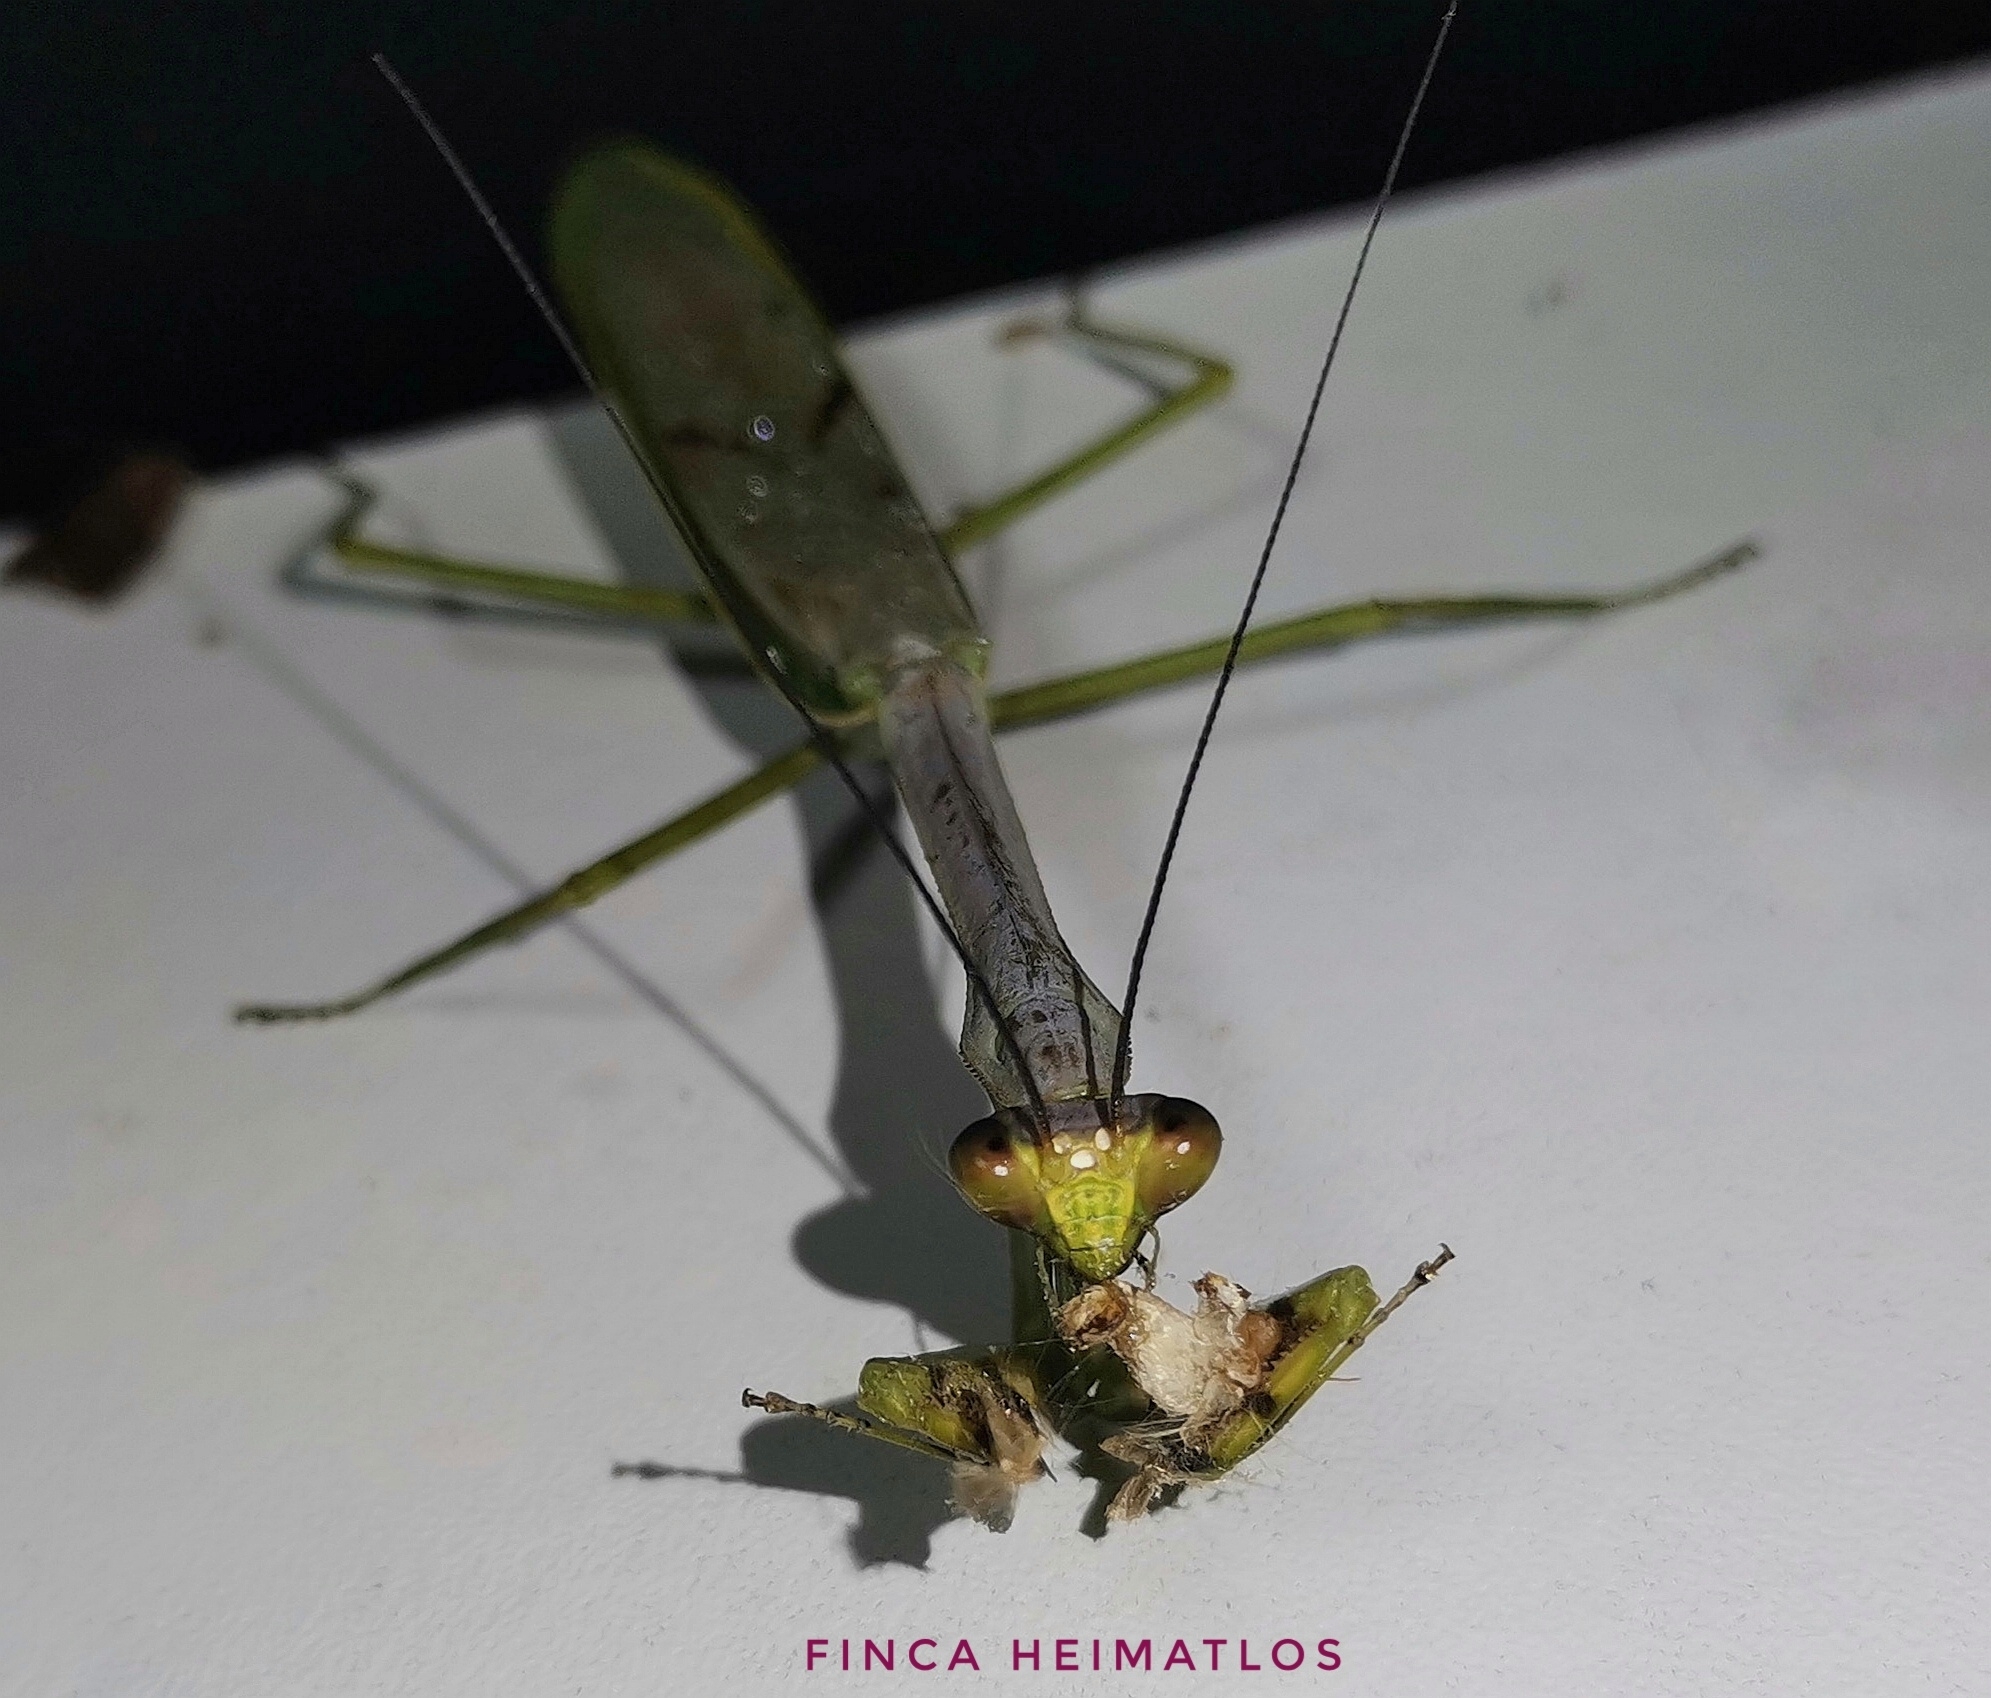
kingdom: Animalia
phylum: Arthropoda
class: Insecta
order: Mantodea
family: Mantidae
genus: Stagmatoptera
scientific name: Stagmatoptera supplicaria
